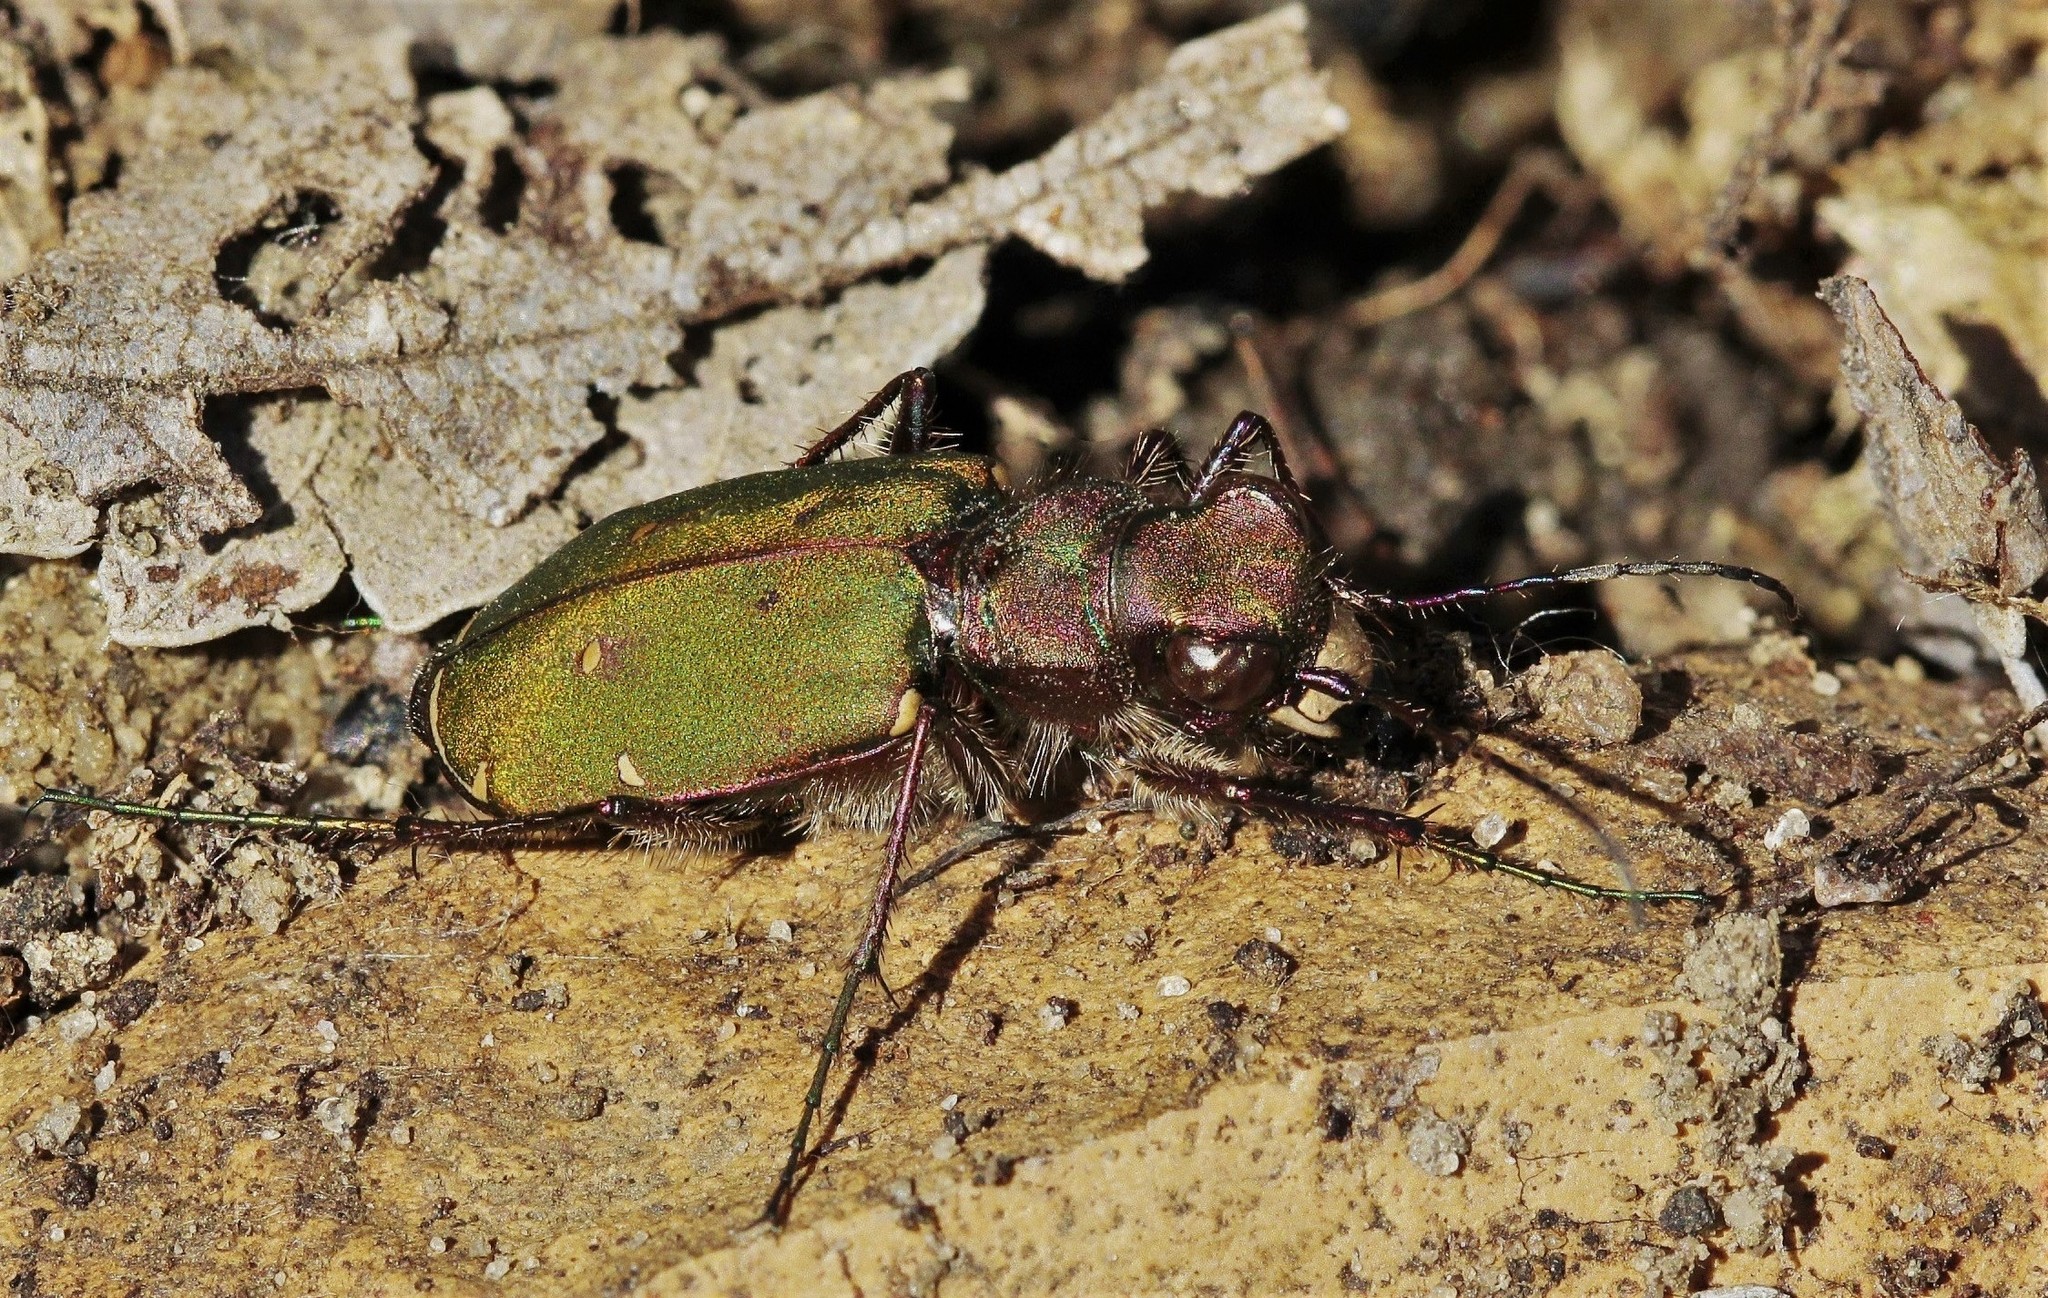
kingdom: Animalia
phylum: Arthropoda
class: Insecta
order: Coleoptera
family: Carabidae
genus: Cicindela
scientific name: Cicindela campestris
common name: Common tiger beetle
